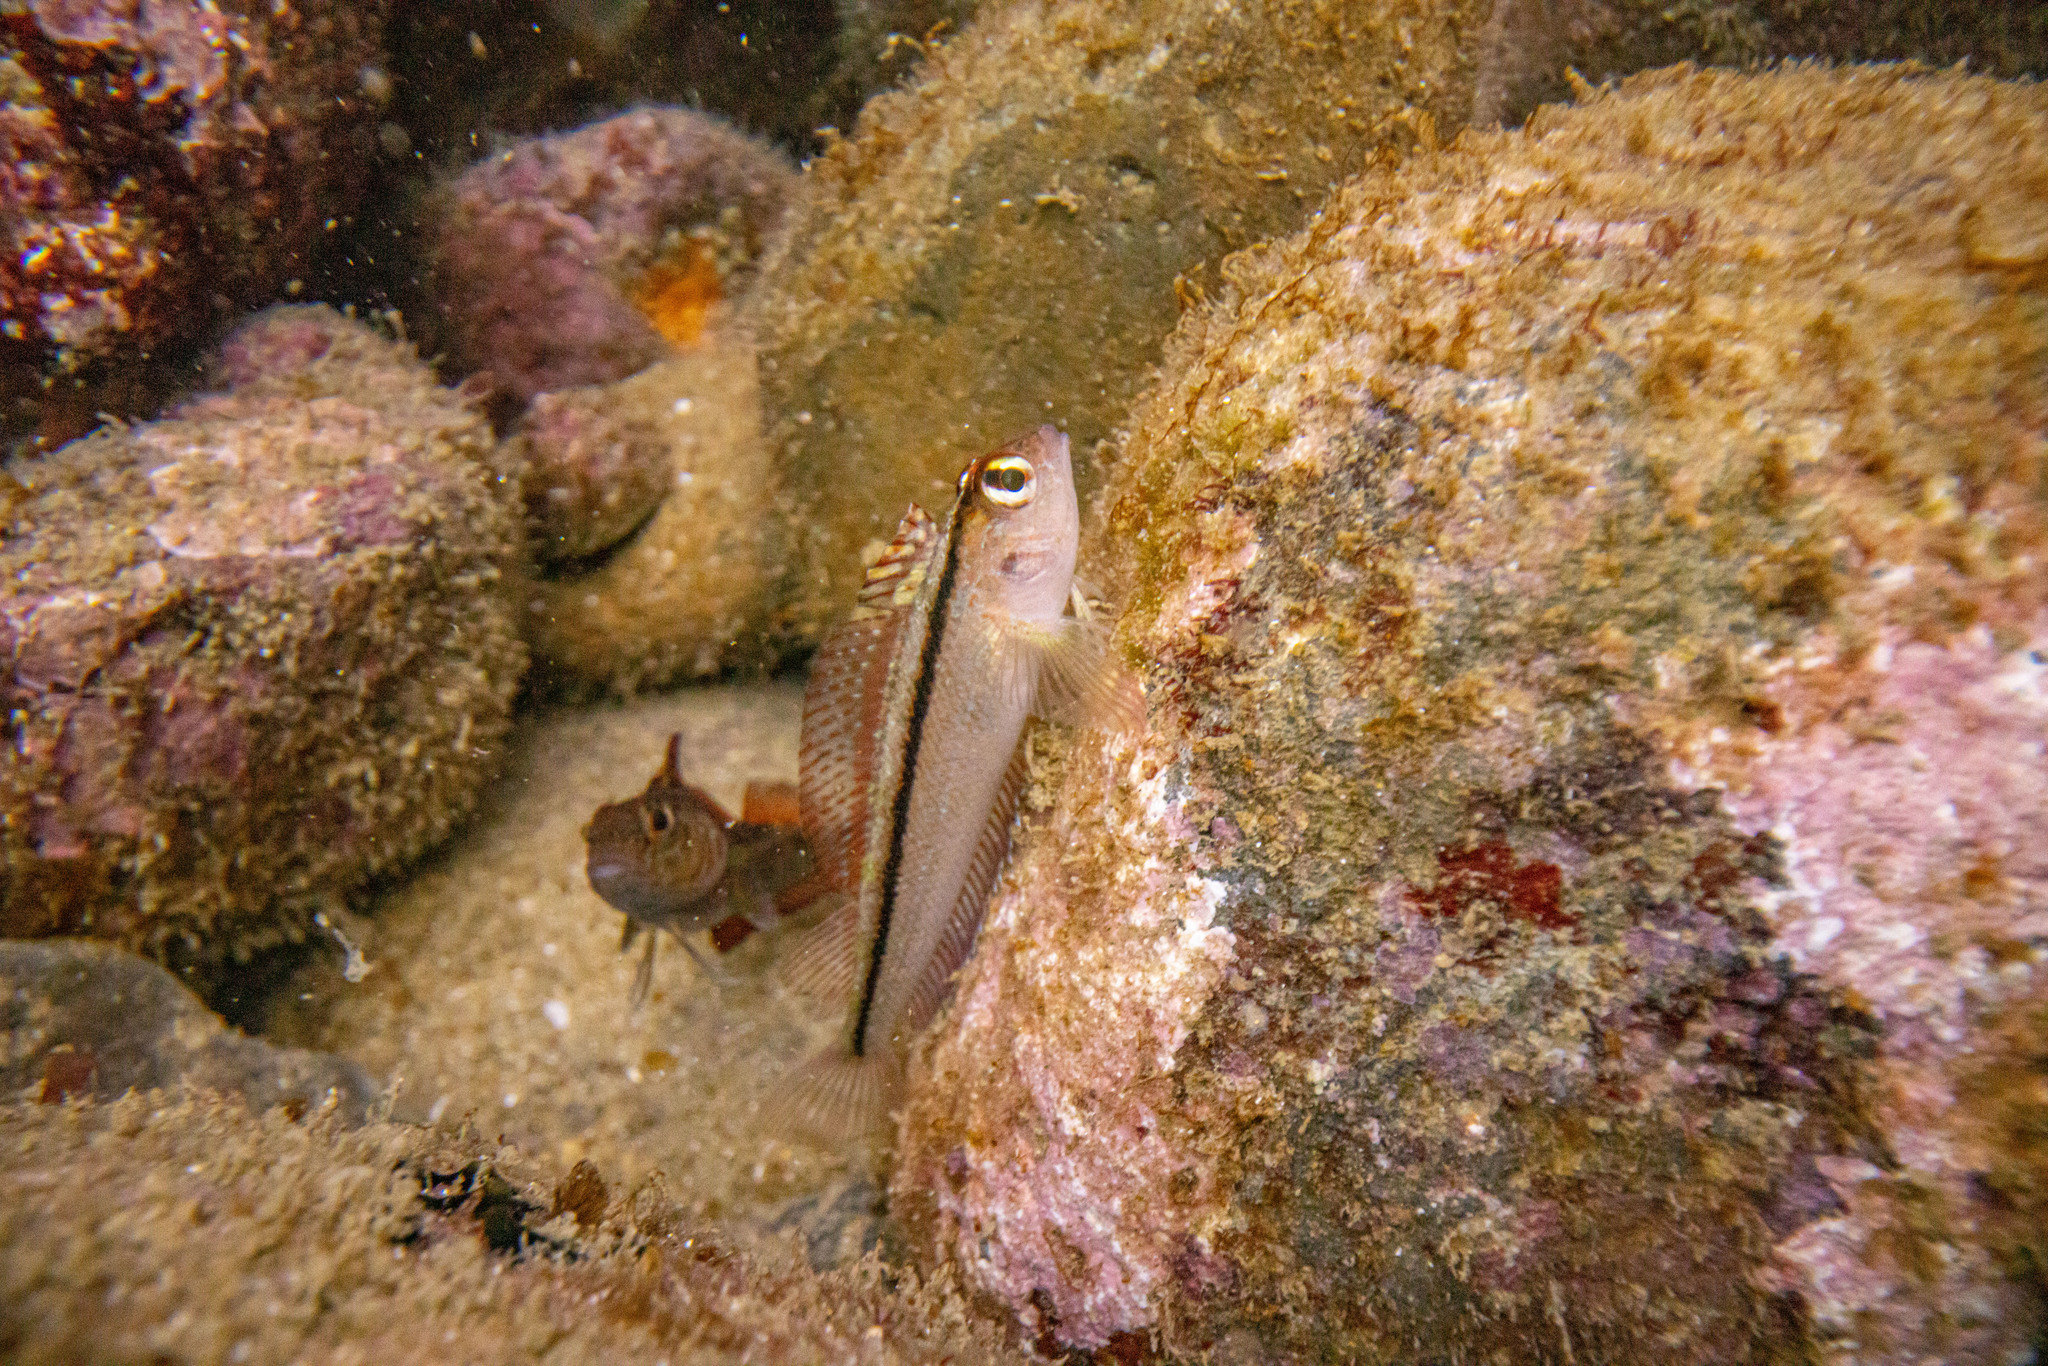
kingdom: Animalia
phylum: Chordata
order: Perciformes
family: Tripterygiidae
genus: Forsterygion
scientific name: Forsterygion lapillum
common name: Common triplefin
